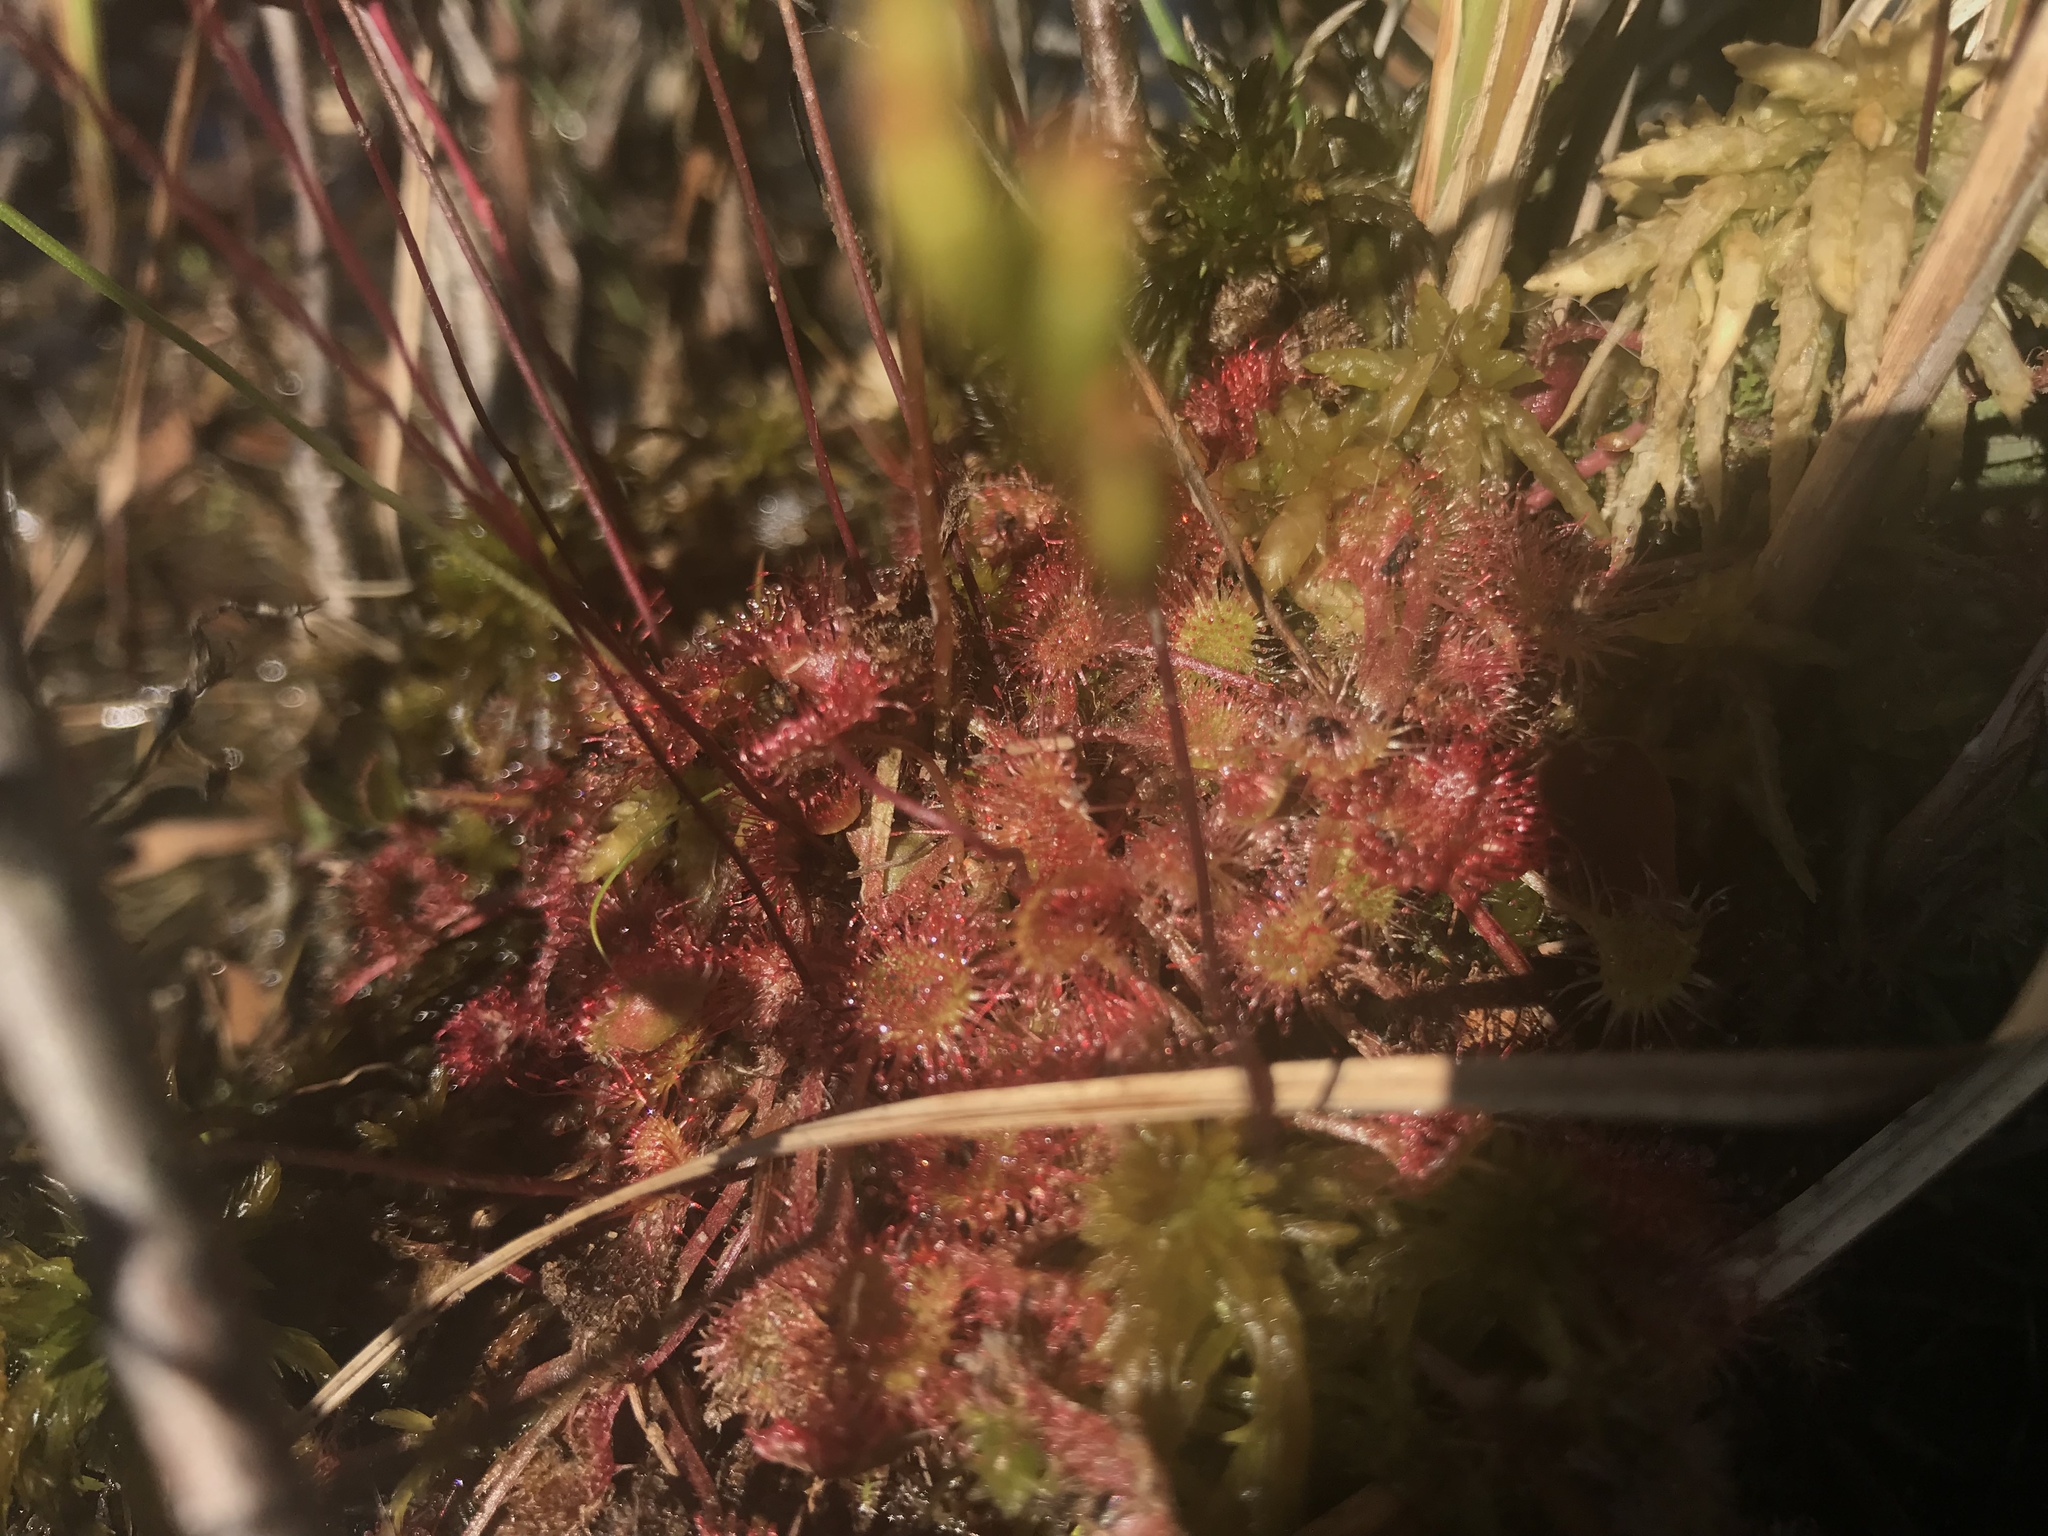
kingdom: Plantae
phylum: Tracheophyta
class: Magnoliopsida
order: Caryophyllales
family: Droseraceae
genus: Drosera
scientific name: Drosera rotundifolia
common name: Round-leaved sundew
